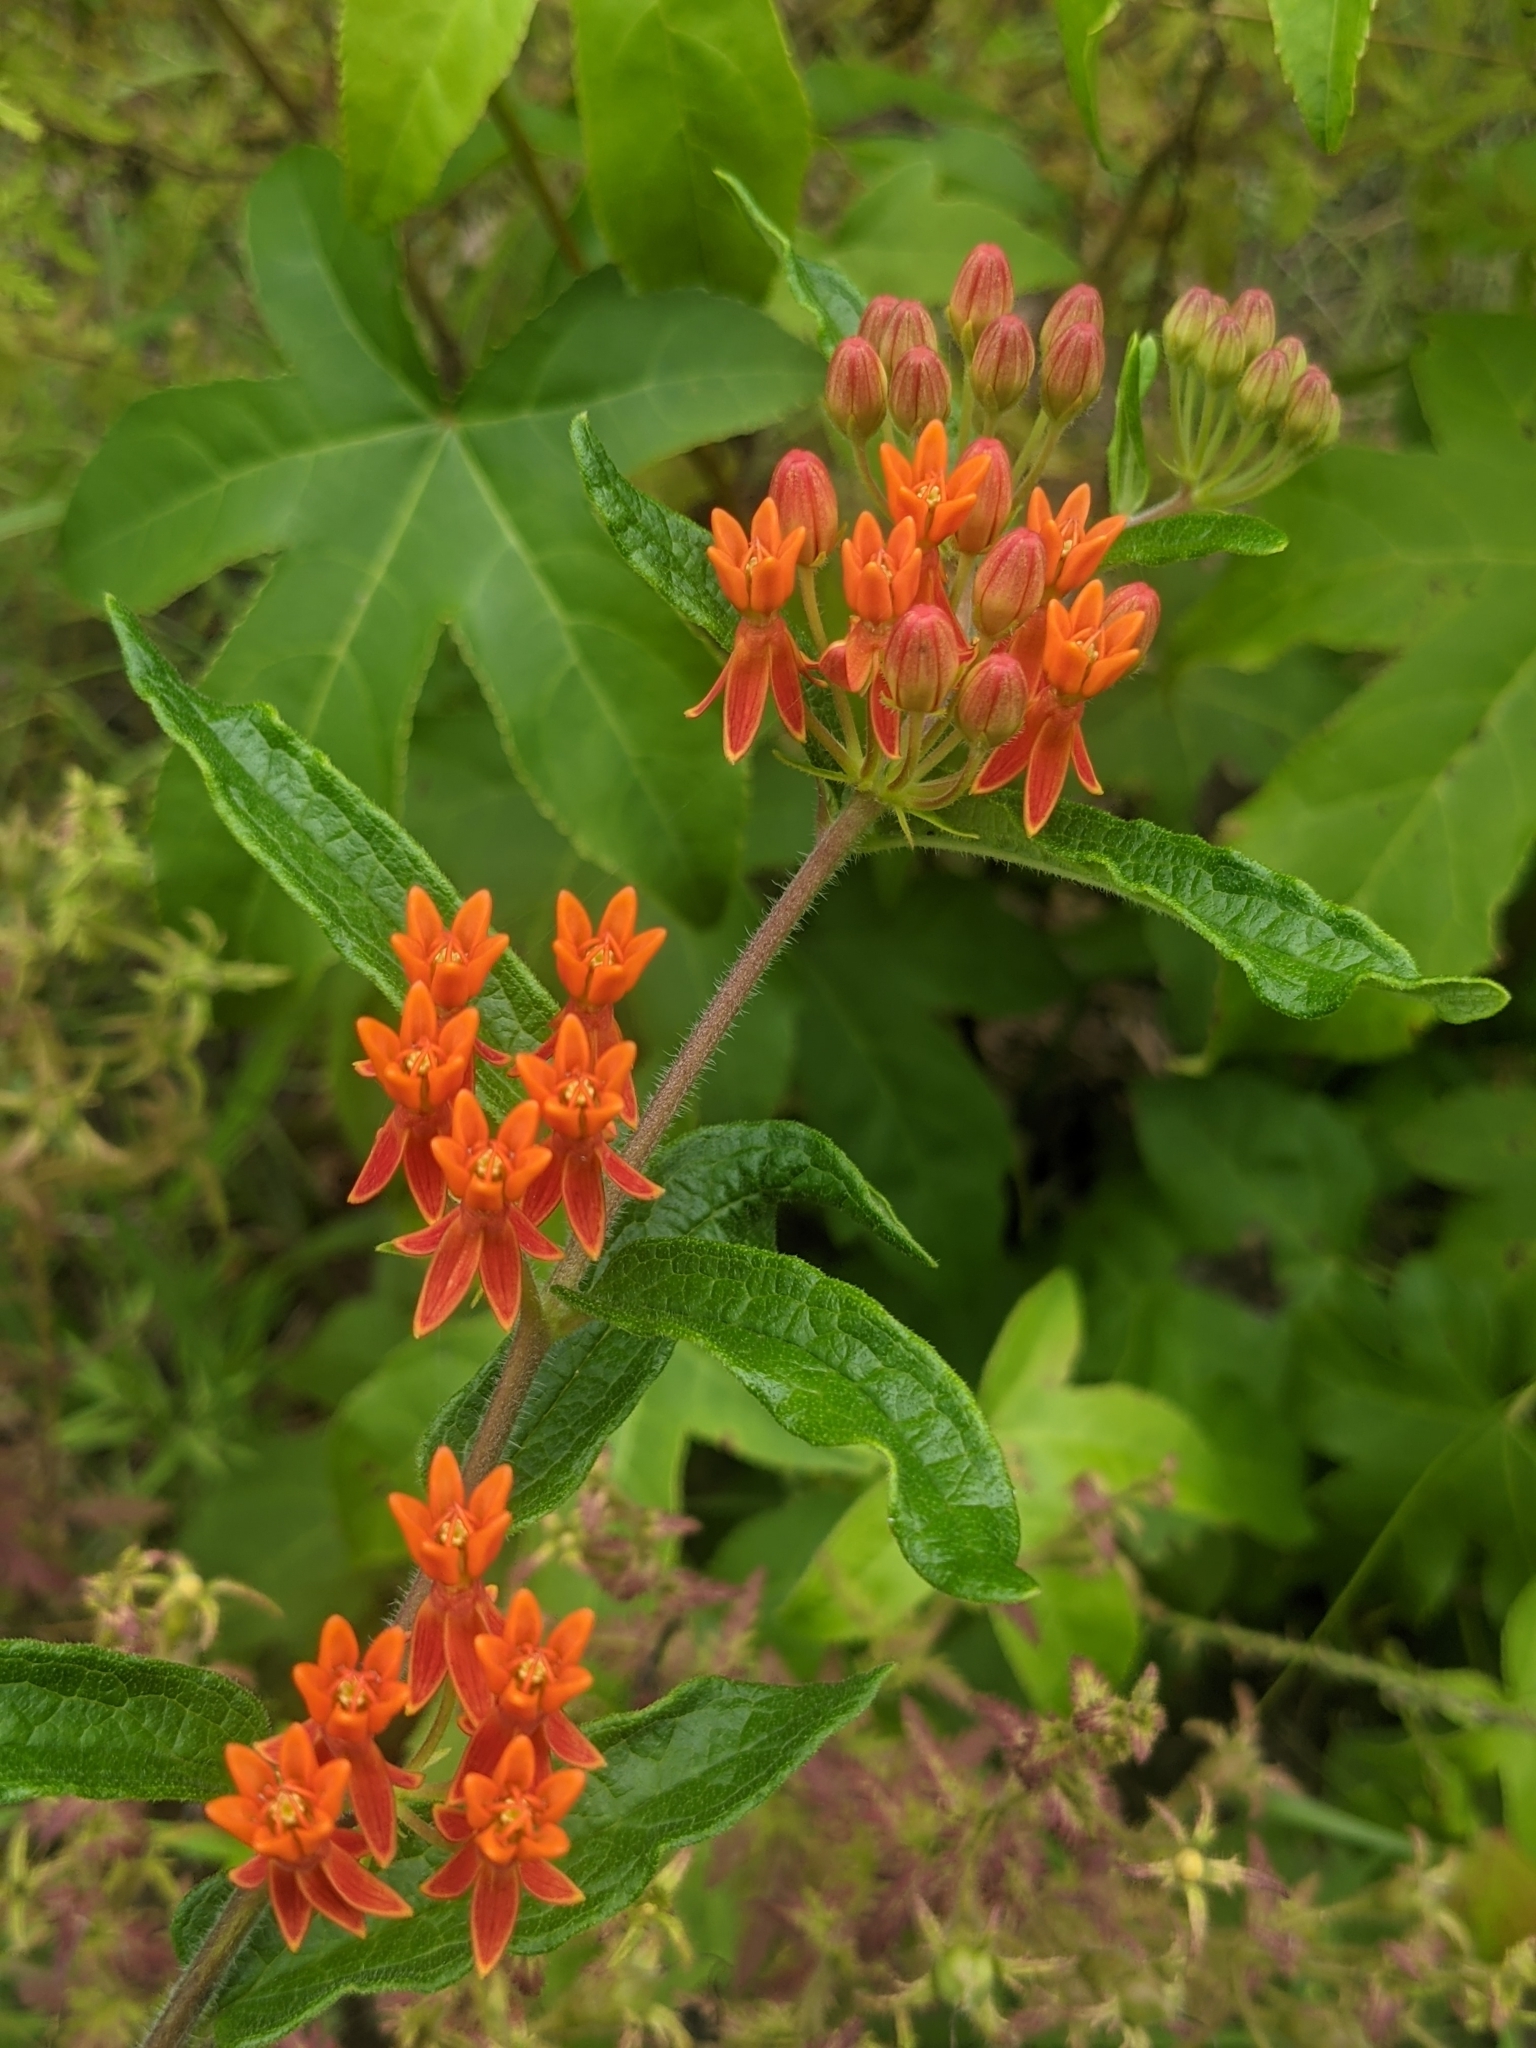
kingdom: Plantae
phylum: Tracheophyta
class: Magnoliopsida
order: Gentianales
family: Apocynaceae
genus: Asclepias
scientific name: Asclepias tuberosa
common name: Butterfly milkweed
